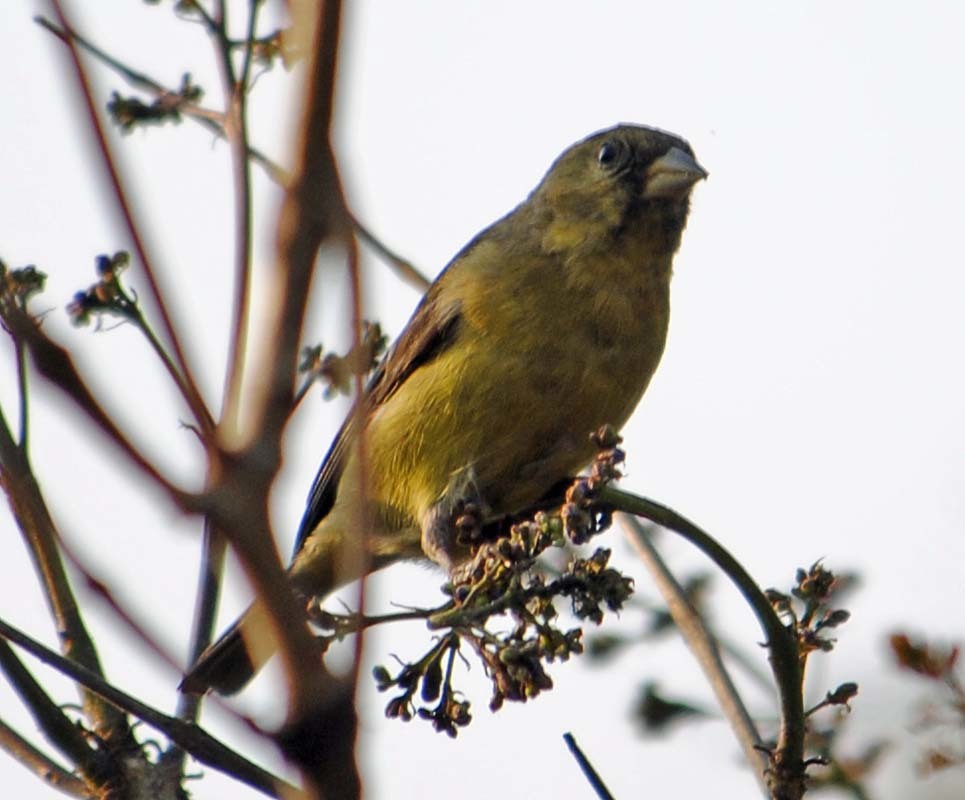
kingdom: Animalia
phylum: Chordata
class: Aves
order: Passeriformes
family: Fringillidae
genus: Spinus
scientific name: Spinus psaltria
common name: Lesser goldfinch
